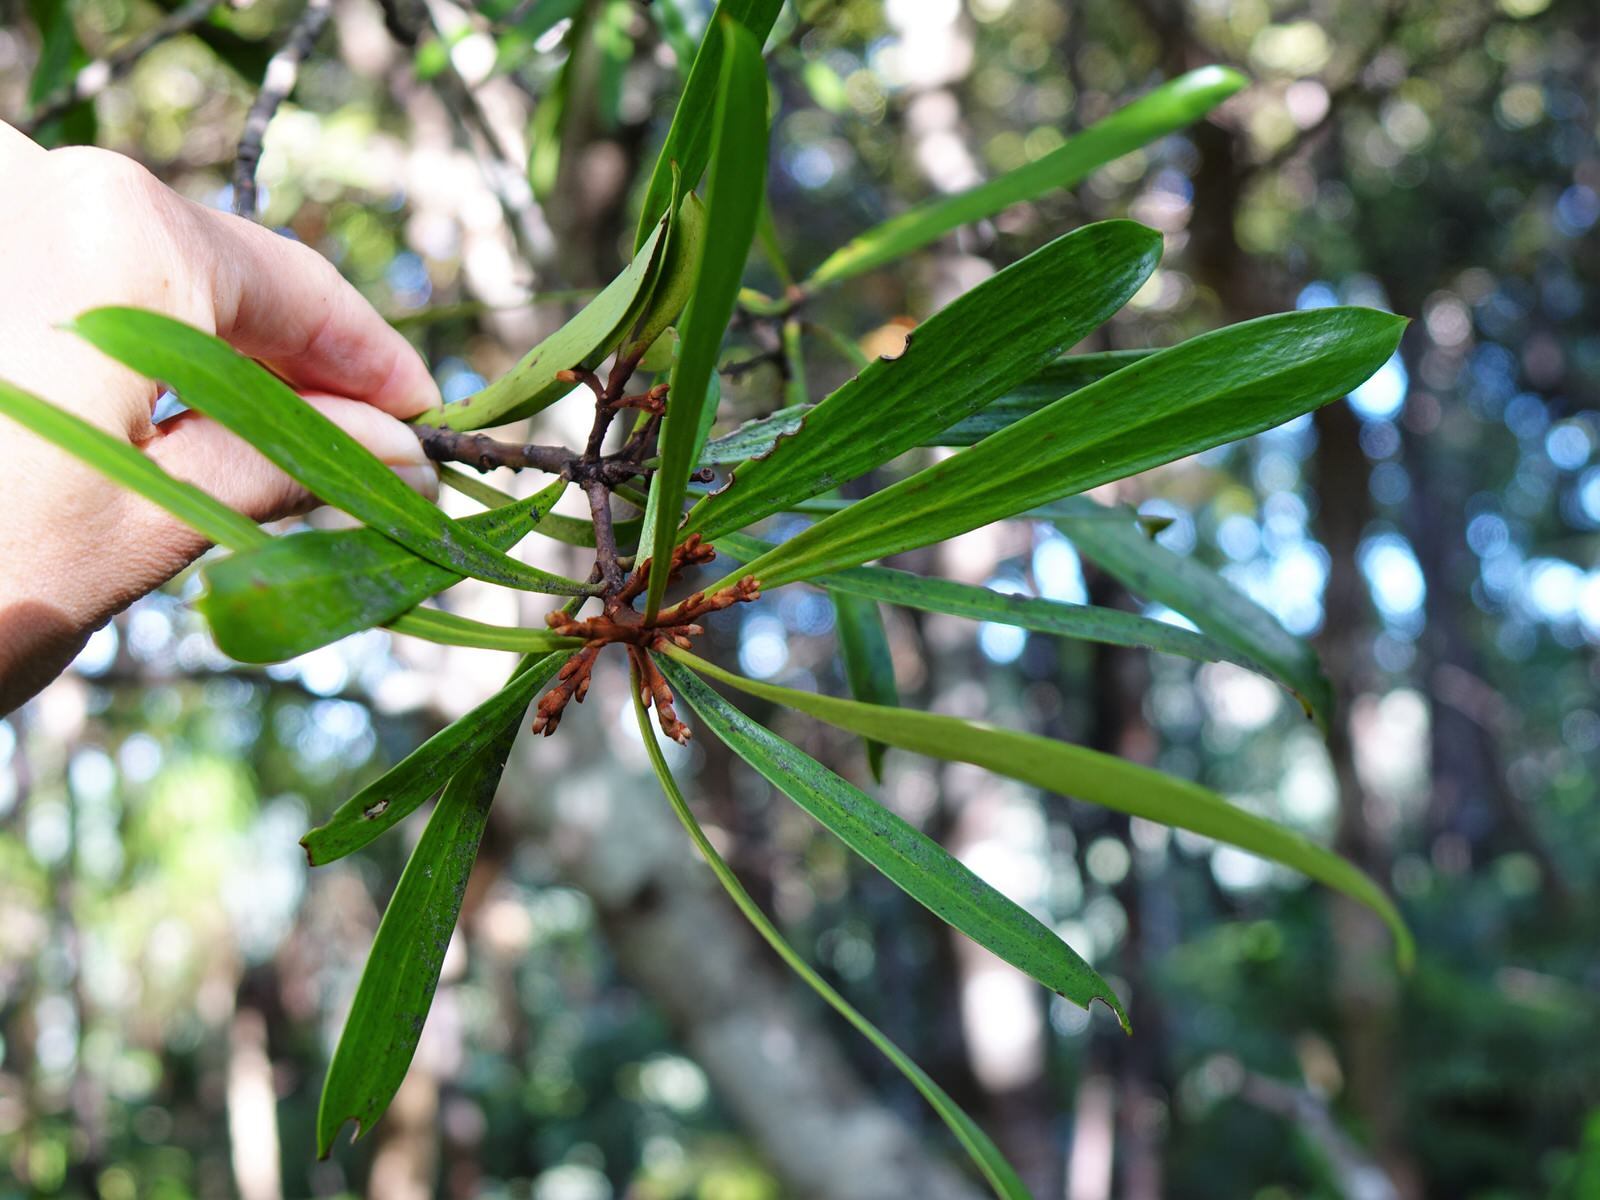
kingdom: Plantae
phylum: Tracheophyta
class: Magnoliopsida
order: Proteales
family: Proteaceae
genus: Toronia
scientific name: Toronia toru
